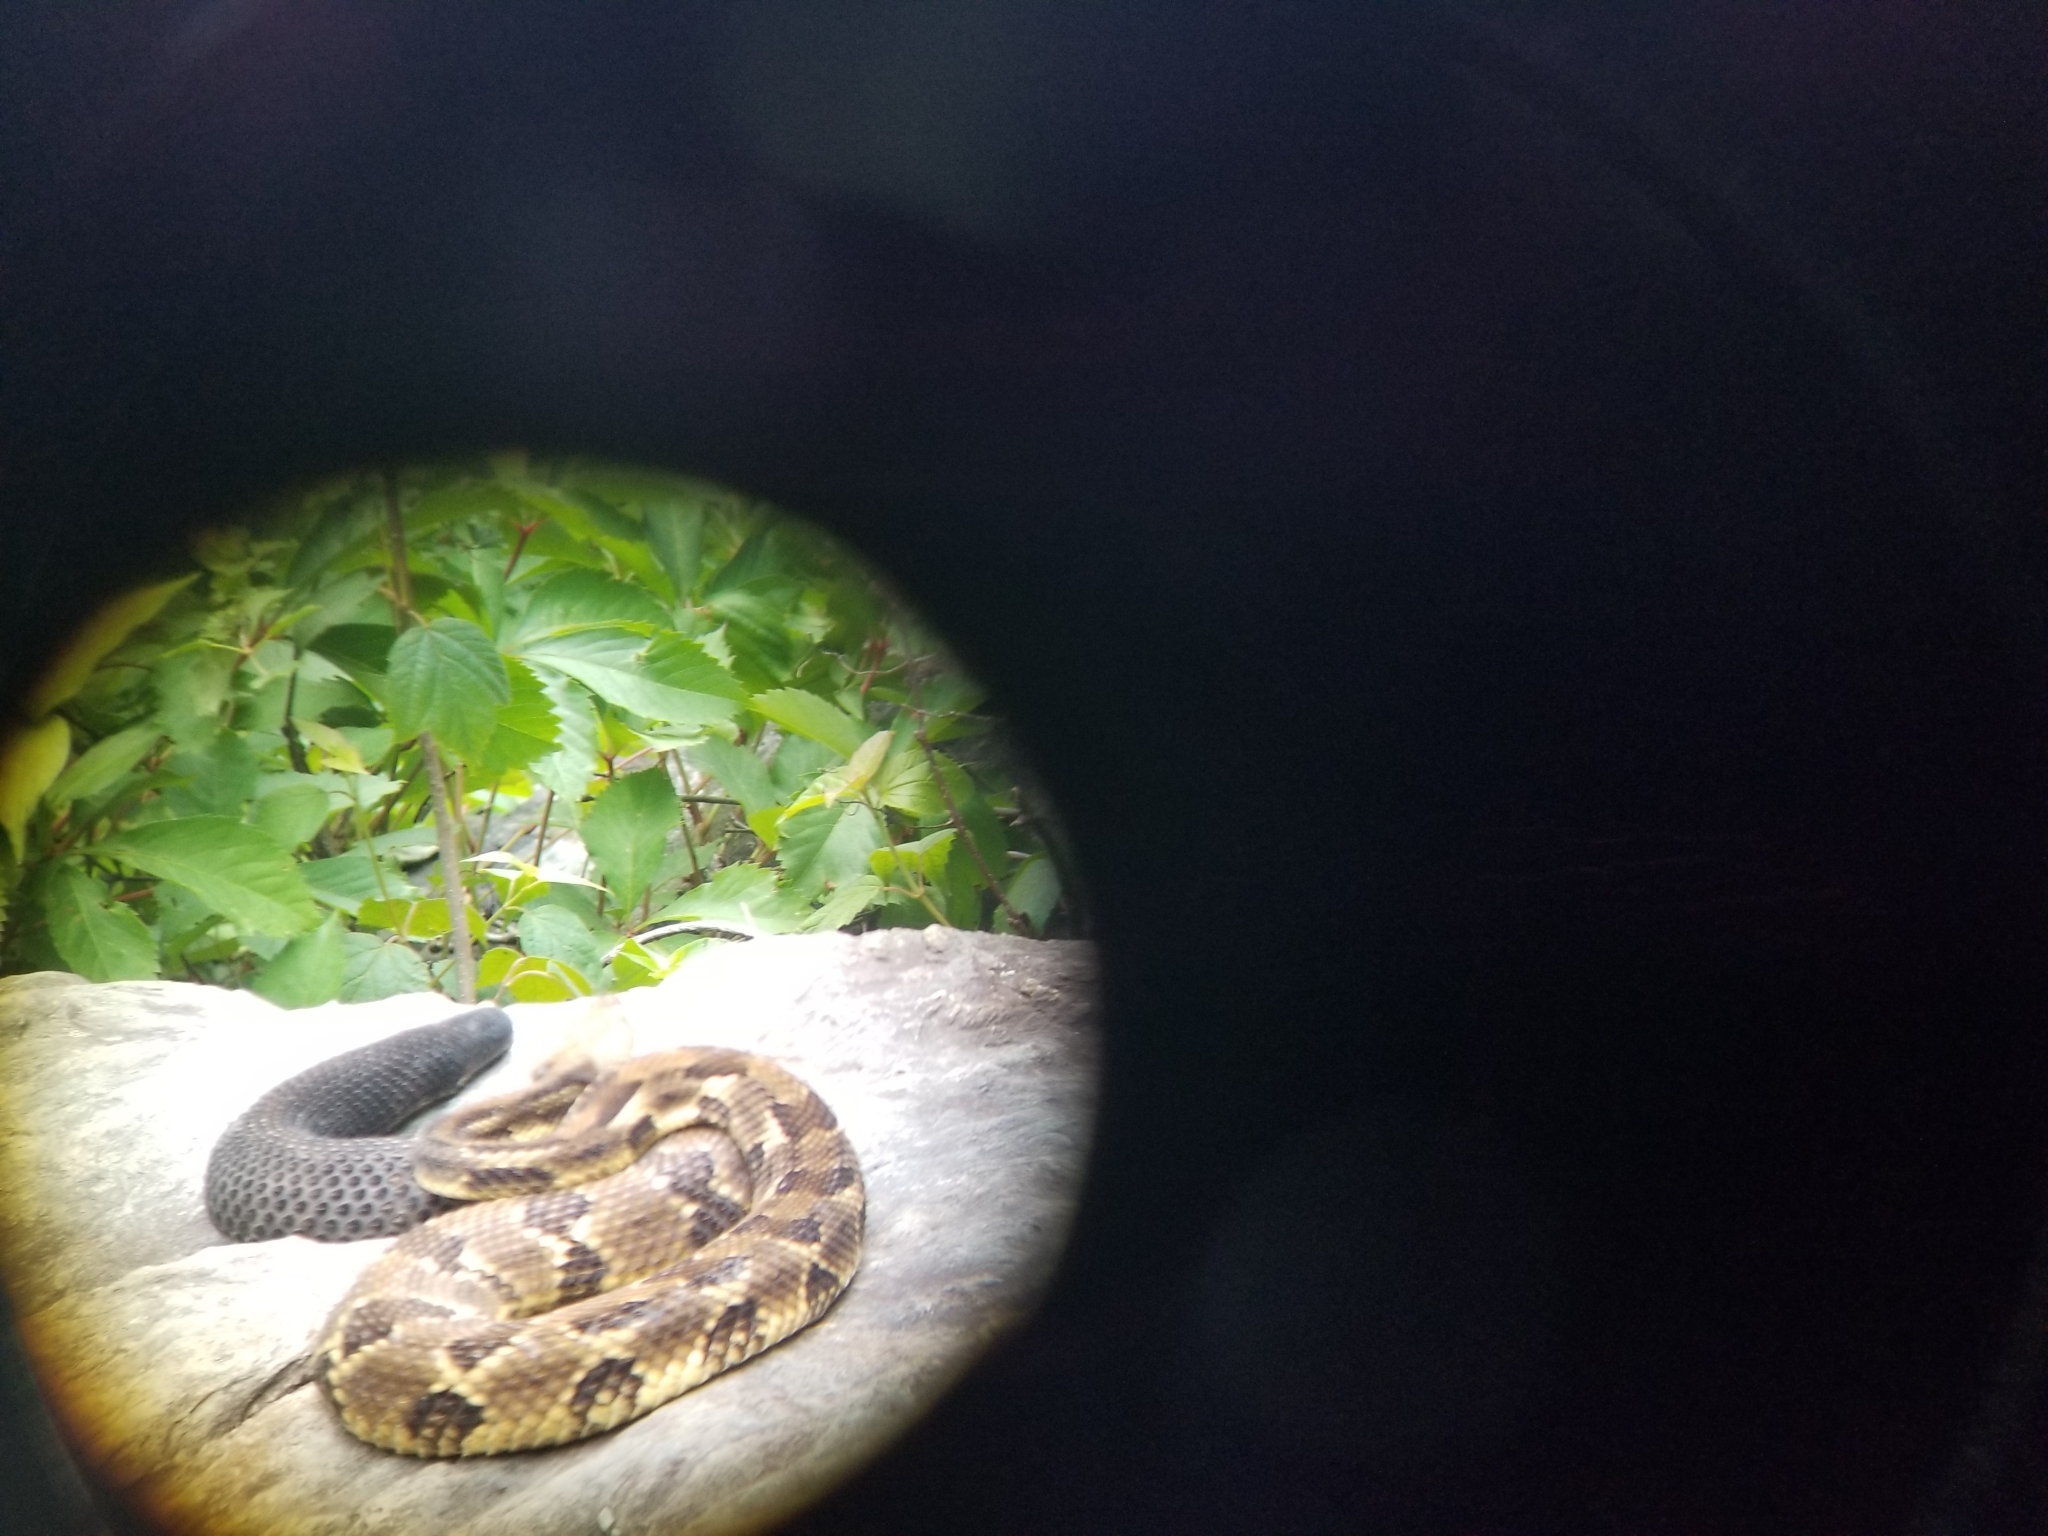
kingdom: Animalia
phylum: Chordata
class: Squamata
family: Viperidae
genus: Crotalus
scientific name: Crotalus horridus
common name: Timber rattlesnake
